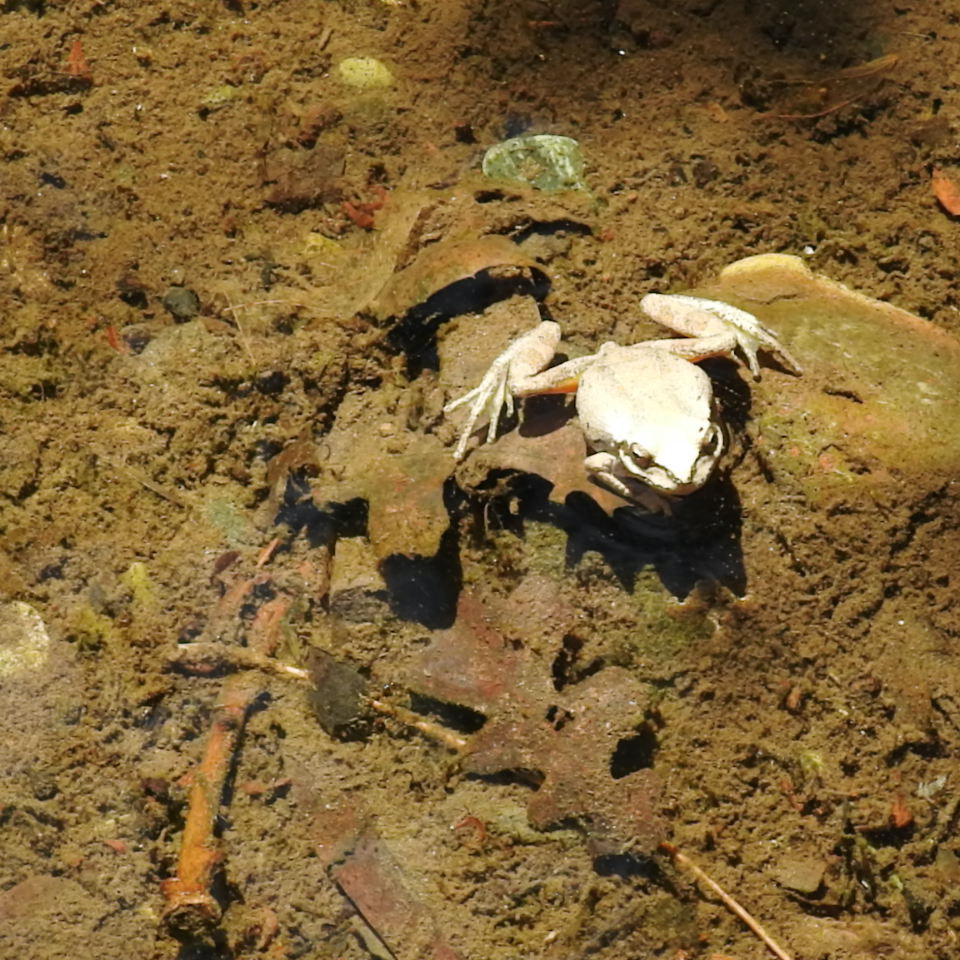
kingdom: Animalia
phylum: Chordata
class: Amphibia
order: Anura
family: Hylidae
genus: Pseudacris
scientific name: Pseudacris regilla
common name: Pacific chorus frog
